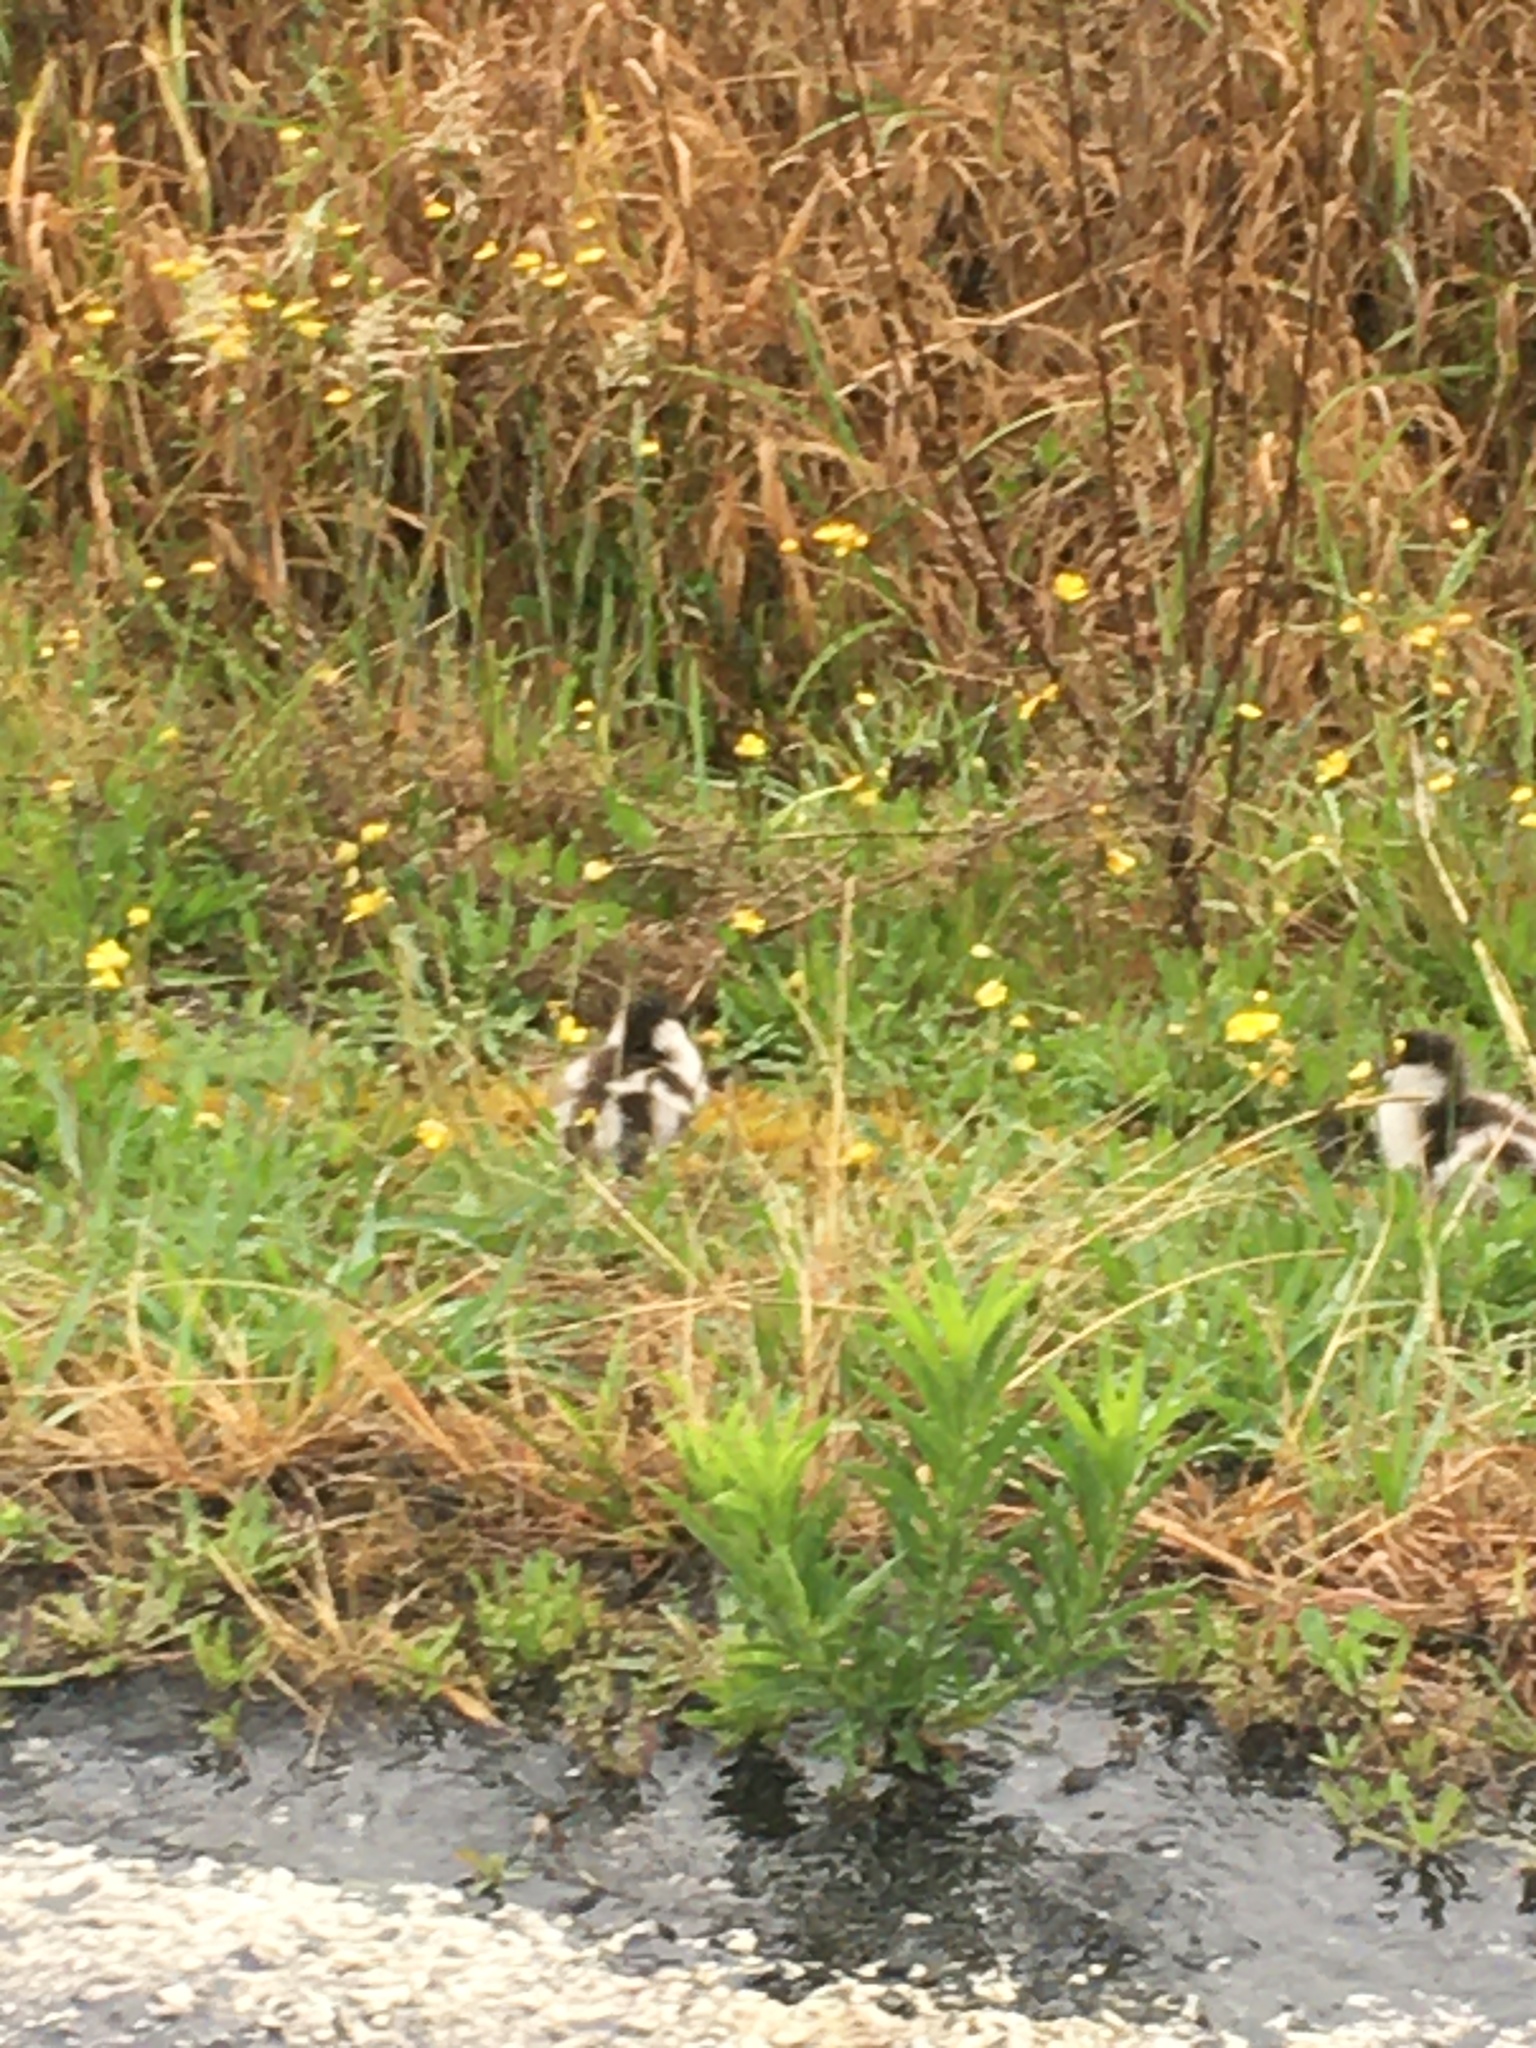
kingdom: Animalia
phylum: Chordata
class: Aves
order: Anseriformes
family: Anatidae
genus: Tadorna
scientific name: Tadorna variegata
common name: Paradise shelduck
